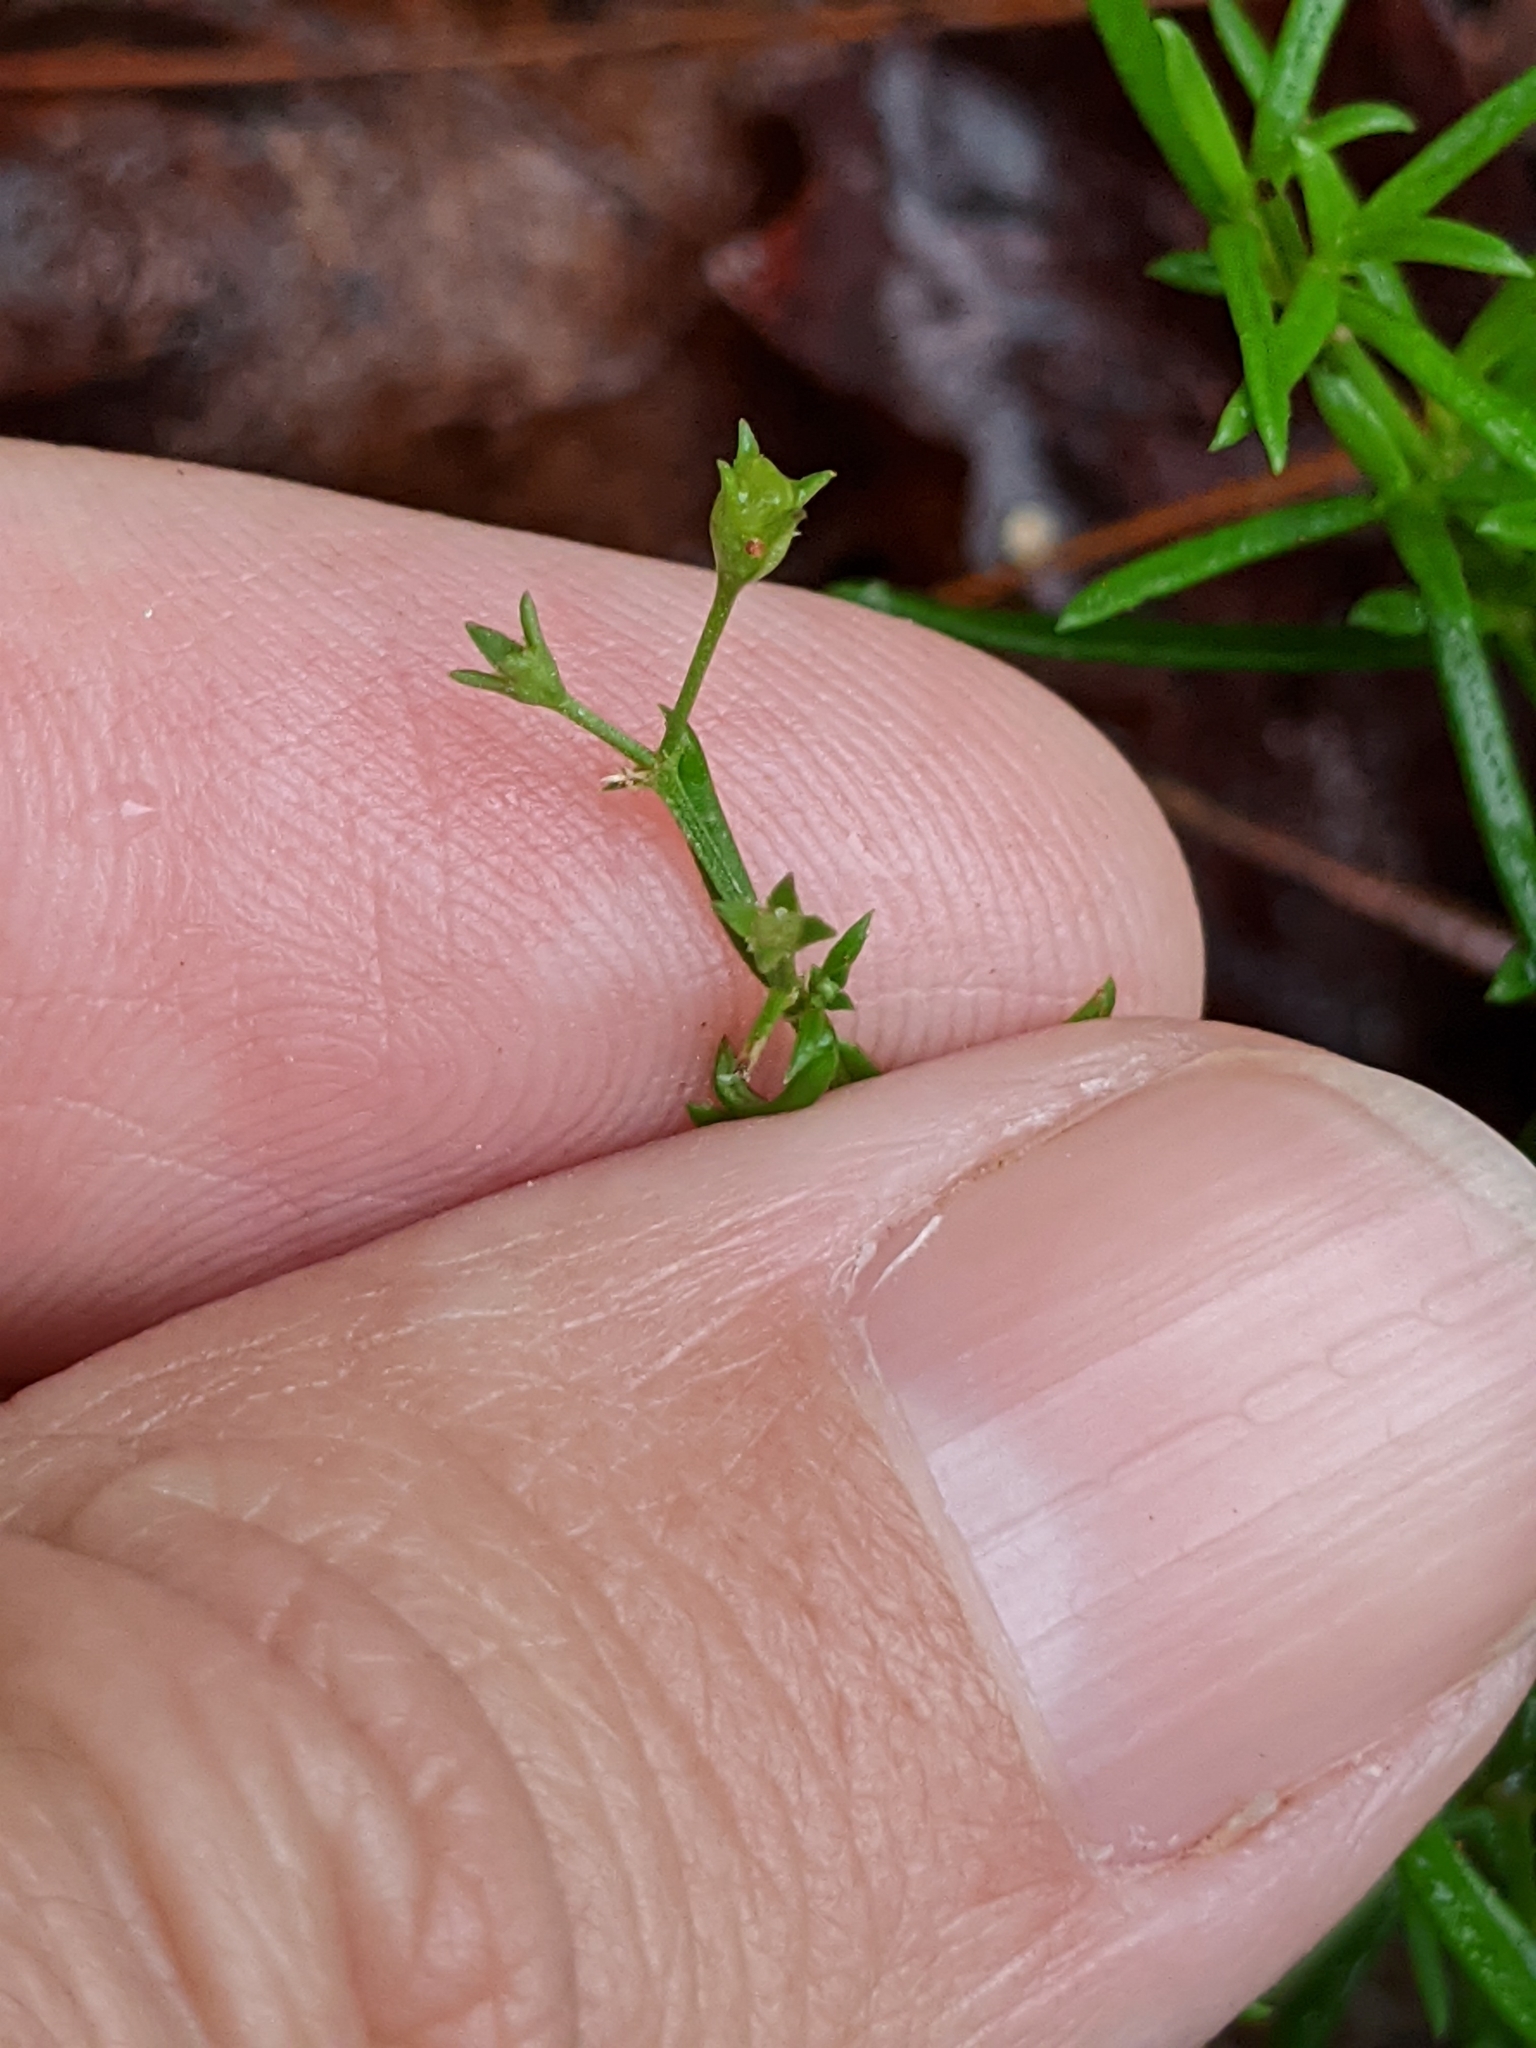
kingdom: Plantae
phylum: Tracheophyta
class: Magnoliopsida
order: Lamiales
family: Tetrachondraceae
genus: Polypremum
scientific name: Polypremum procumbens
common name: Juniper-leaf
